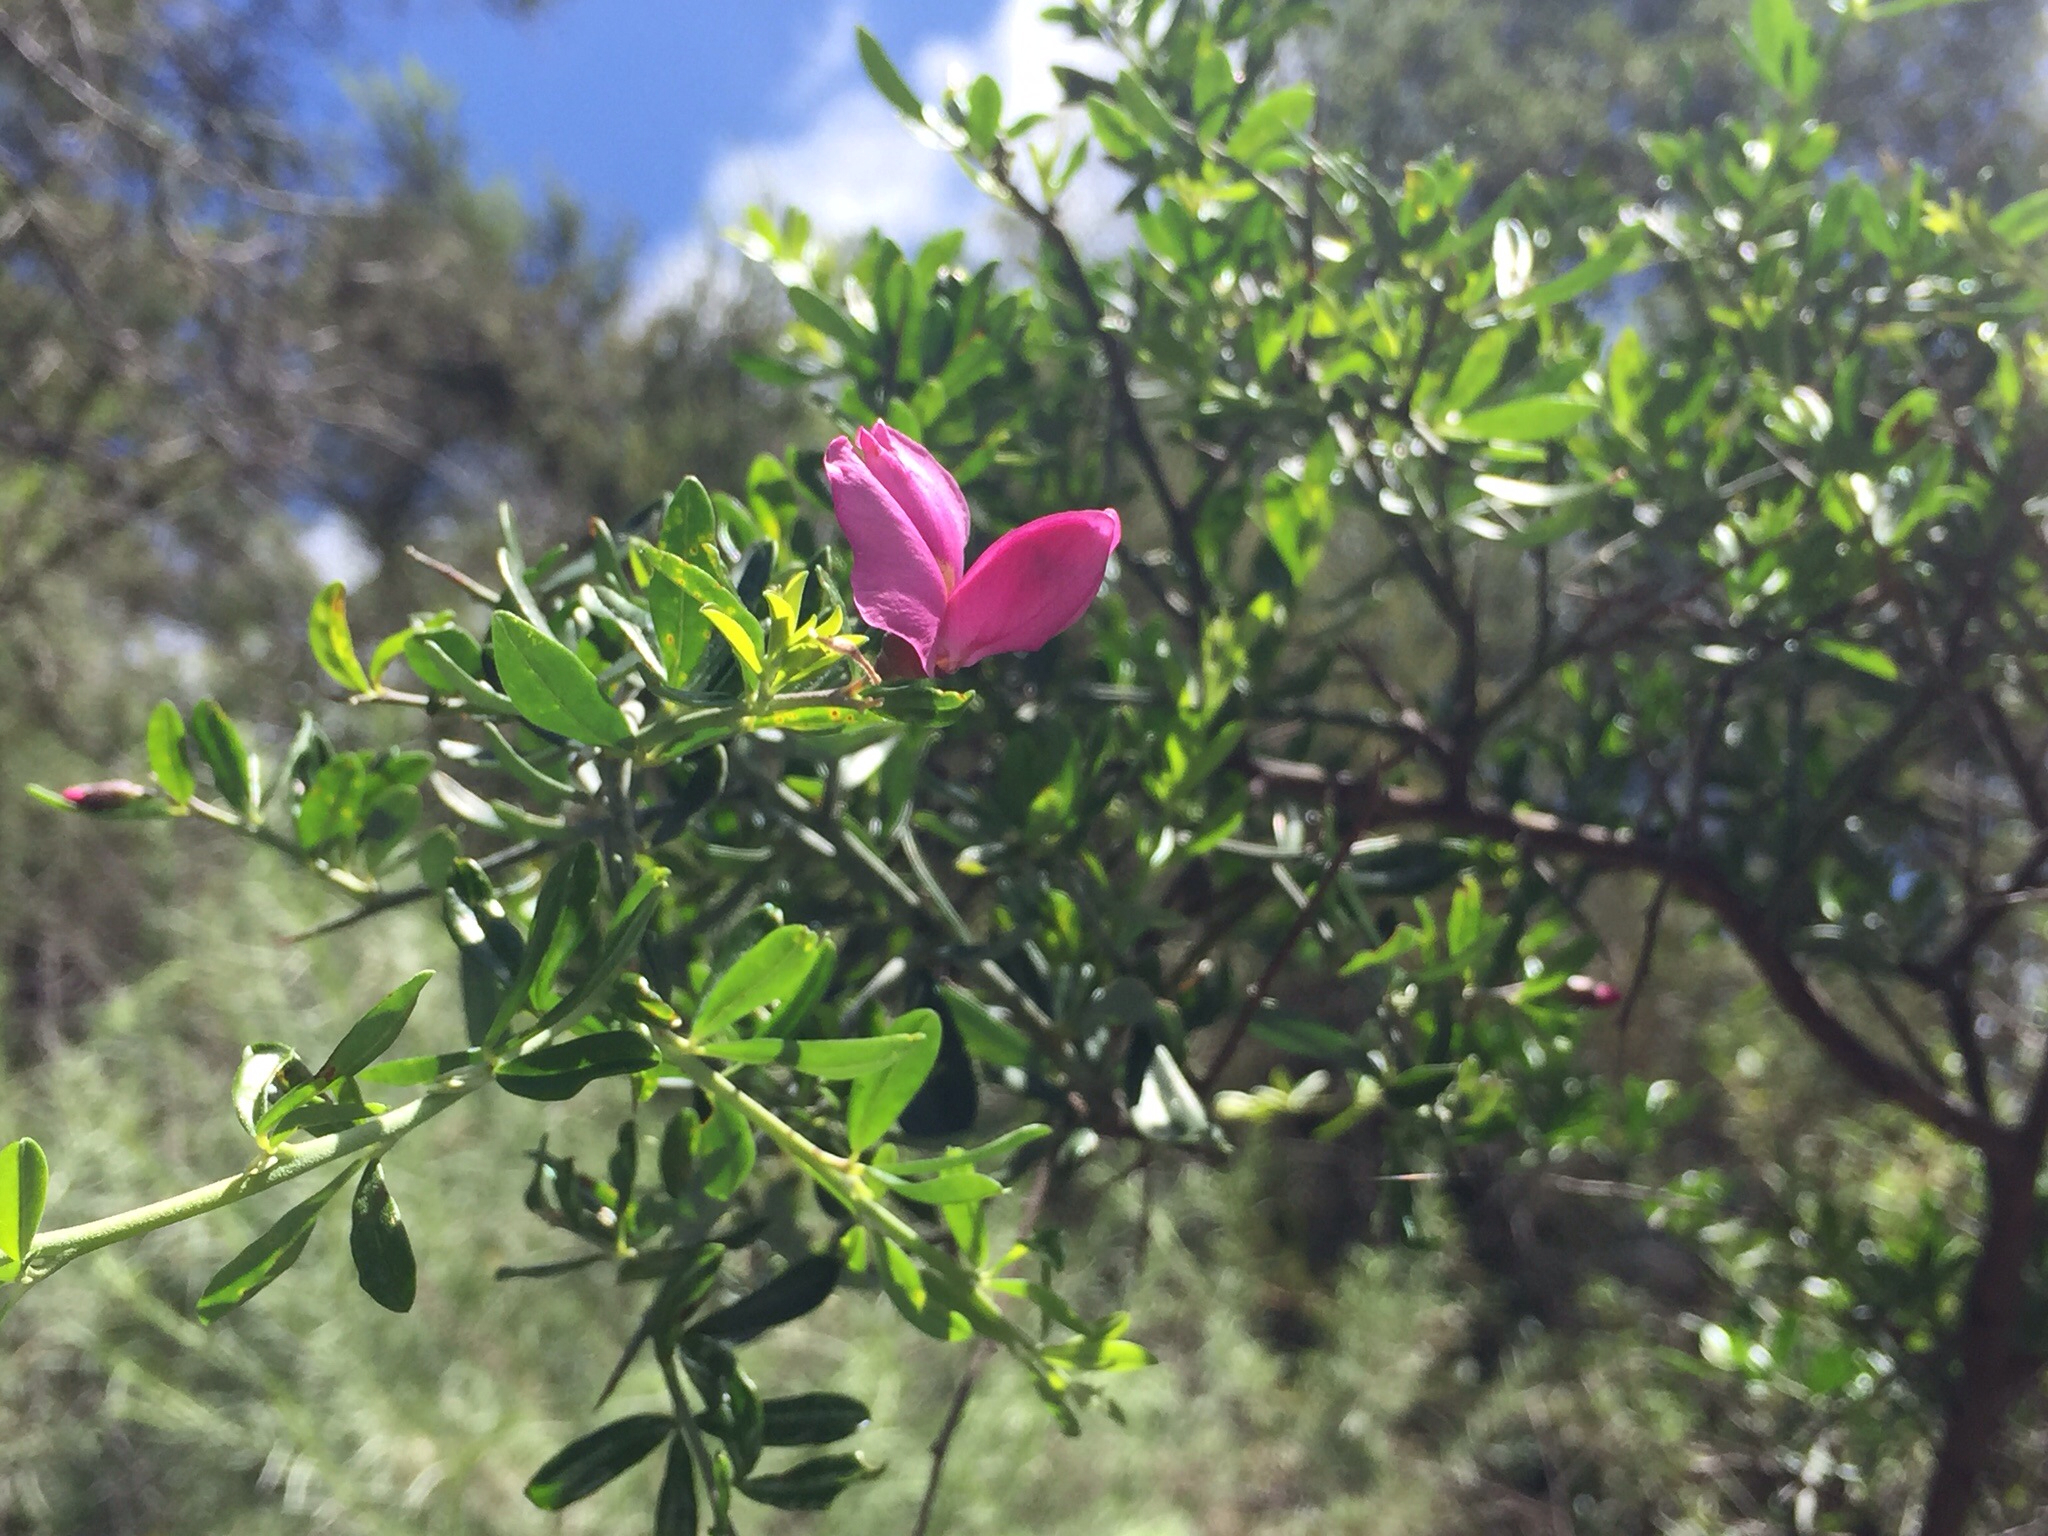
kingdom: Plantae
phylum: Tracheophyta
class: Magnoliopsida
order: Fabales
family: Fabaceae
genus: Pickeringia
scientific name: Pickeringia montana
